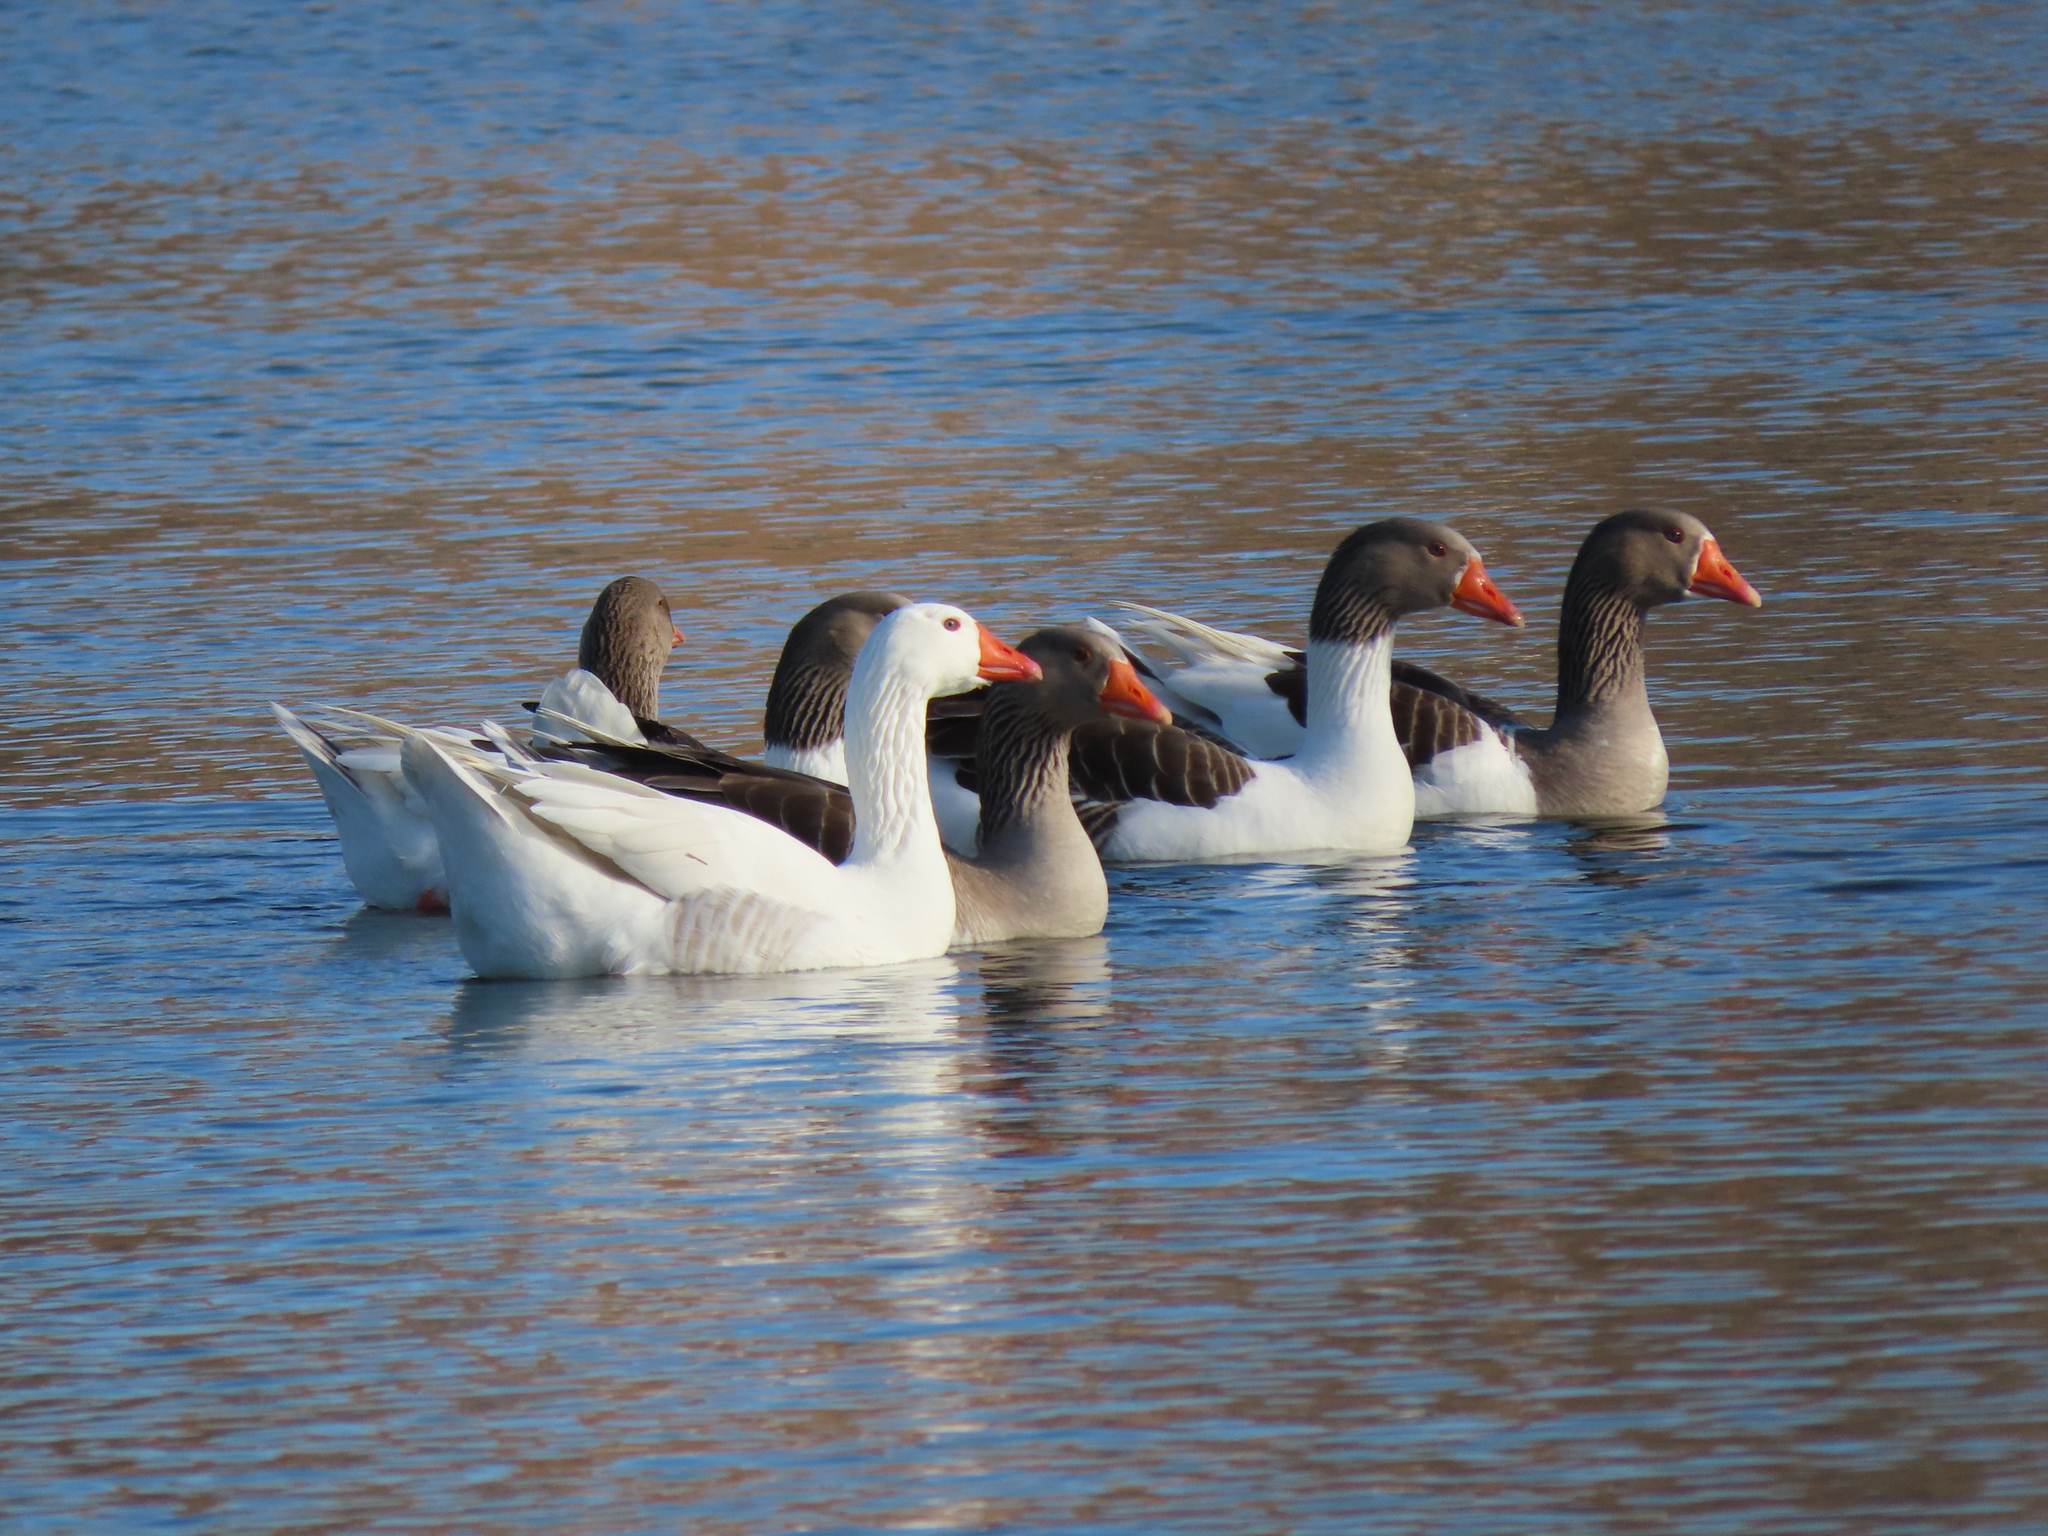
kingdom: Animalia
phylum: Chordata
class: Aves
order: Anseriformes
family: Anatidae
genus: Anser
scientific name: Anser anser
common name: Greylag goose
